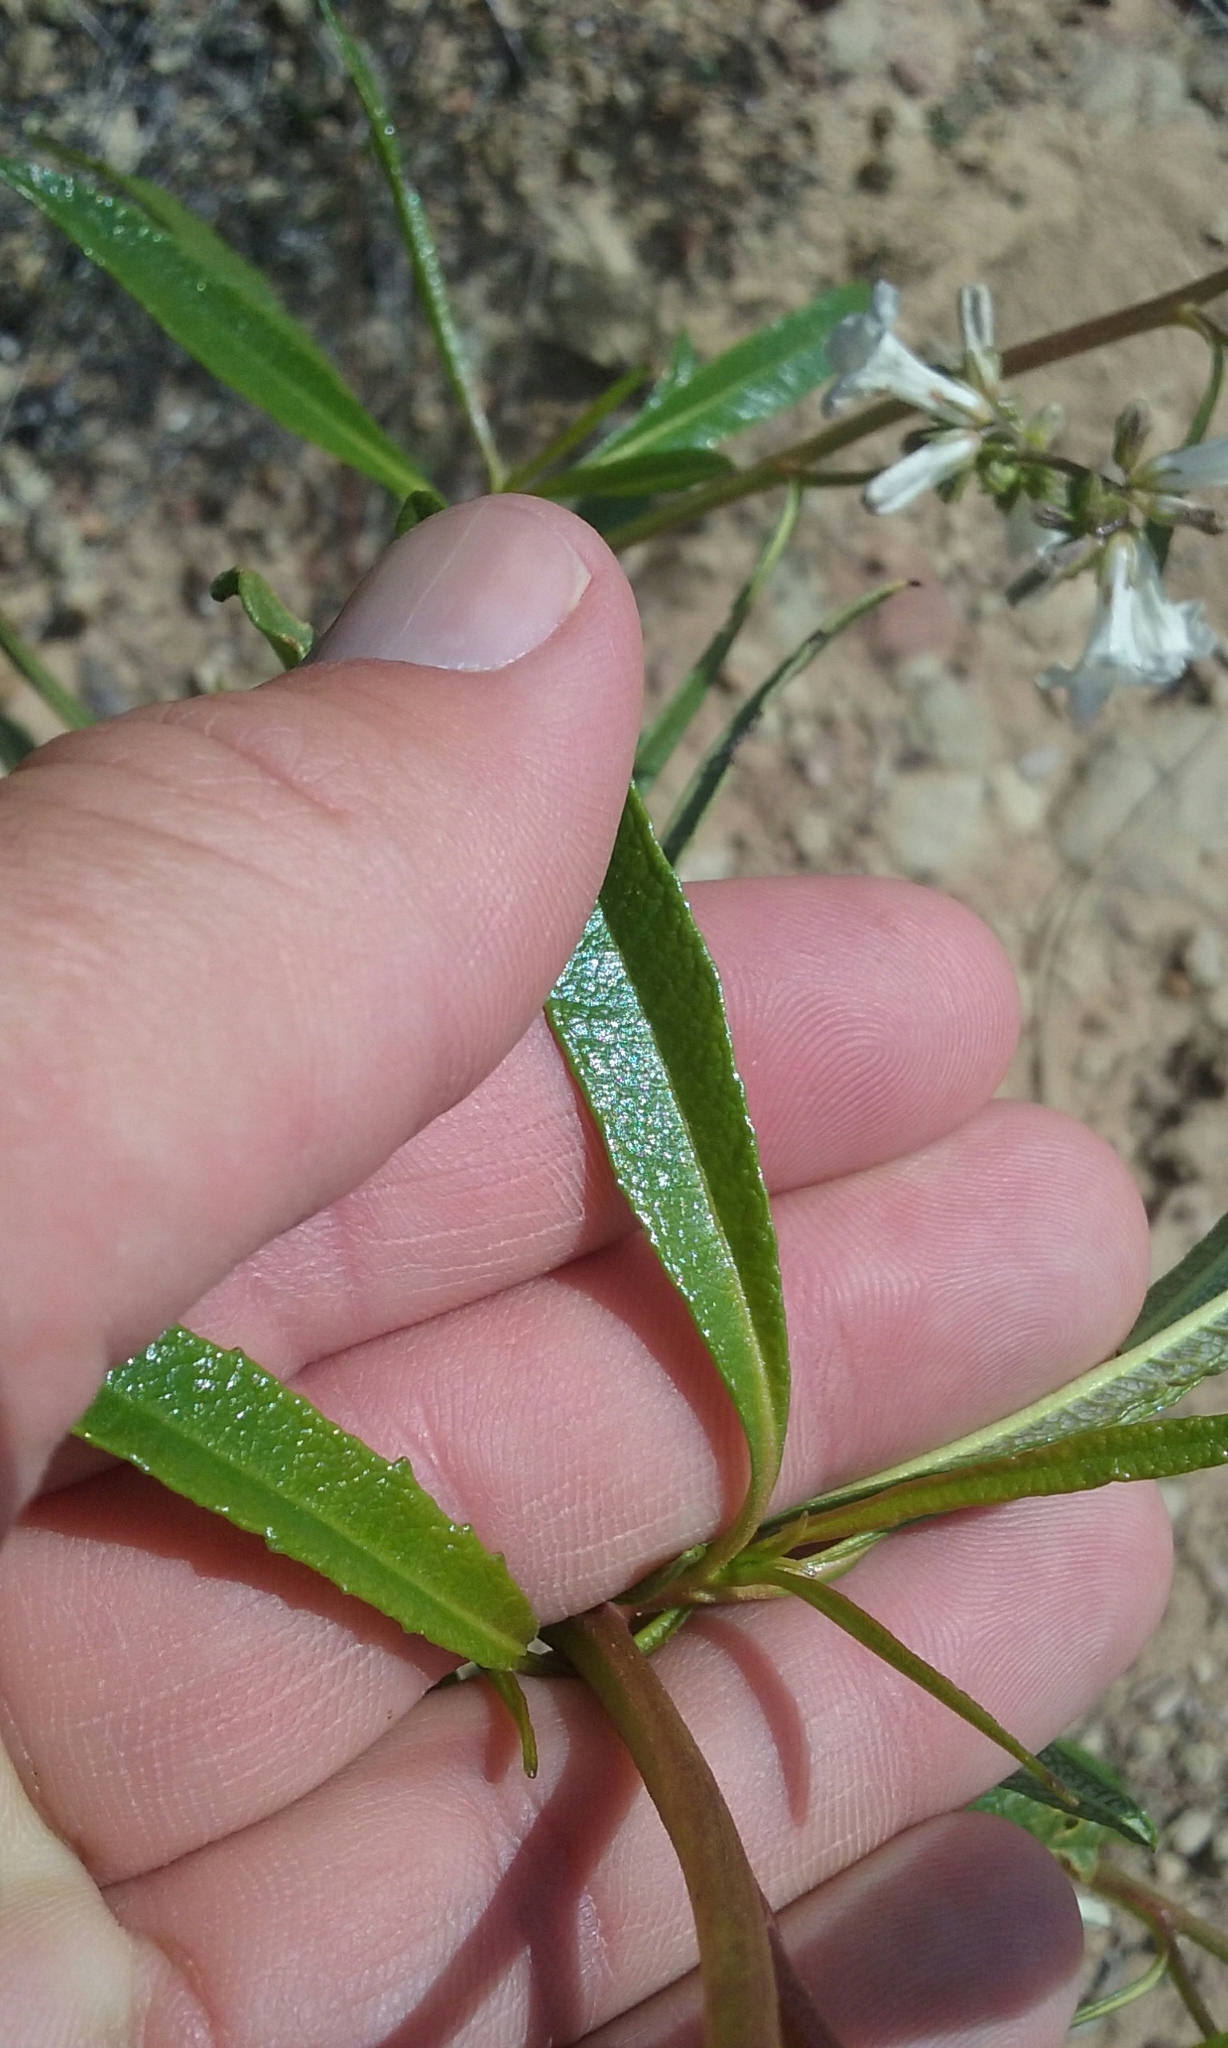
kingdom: Plantae
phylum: Tracheophyta
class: Magnoliopsida
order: Boraginales
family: Namaceae
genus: Eriodictyon
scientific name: Eriodictyon californicum
